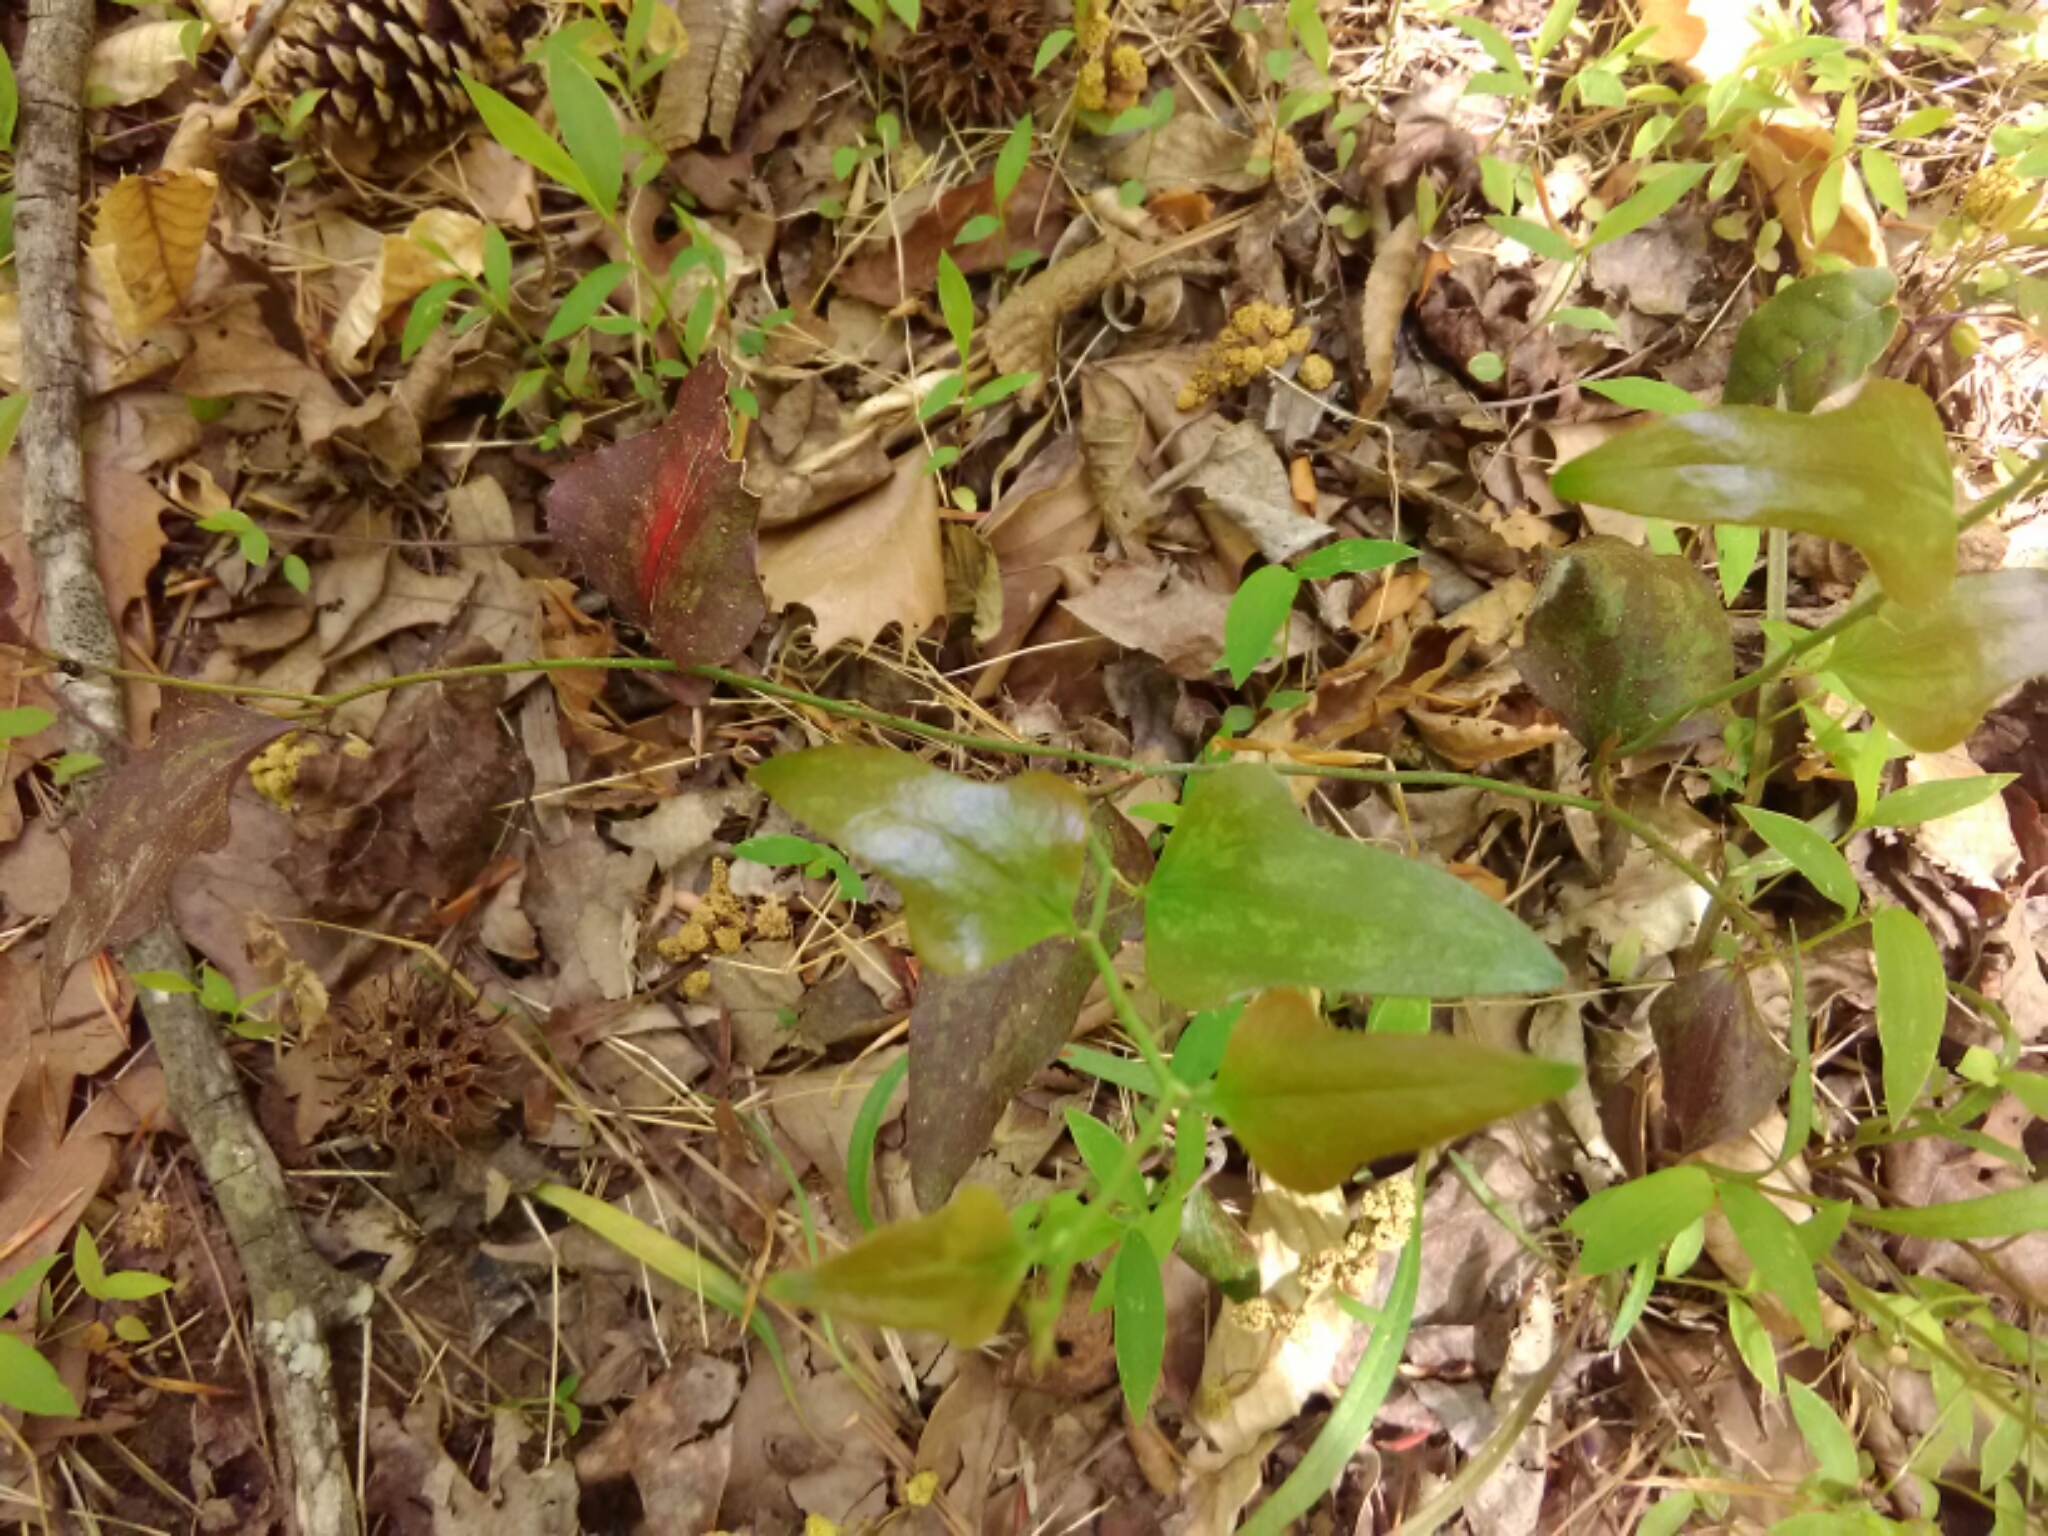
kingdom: Plantae
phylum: Tracheophyta
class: Liliopsida
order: Liliales
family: Smilacaceae
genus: Smilax
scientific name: Smilax bona-nox
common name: Catbrier
